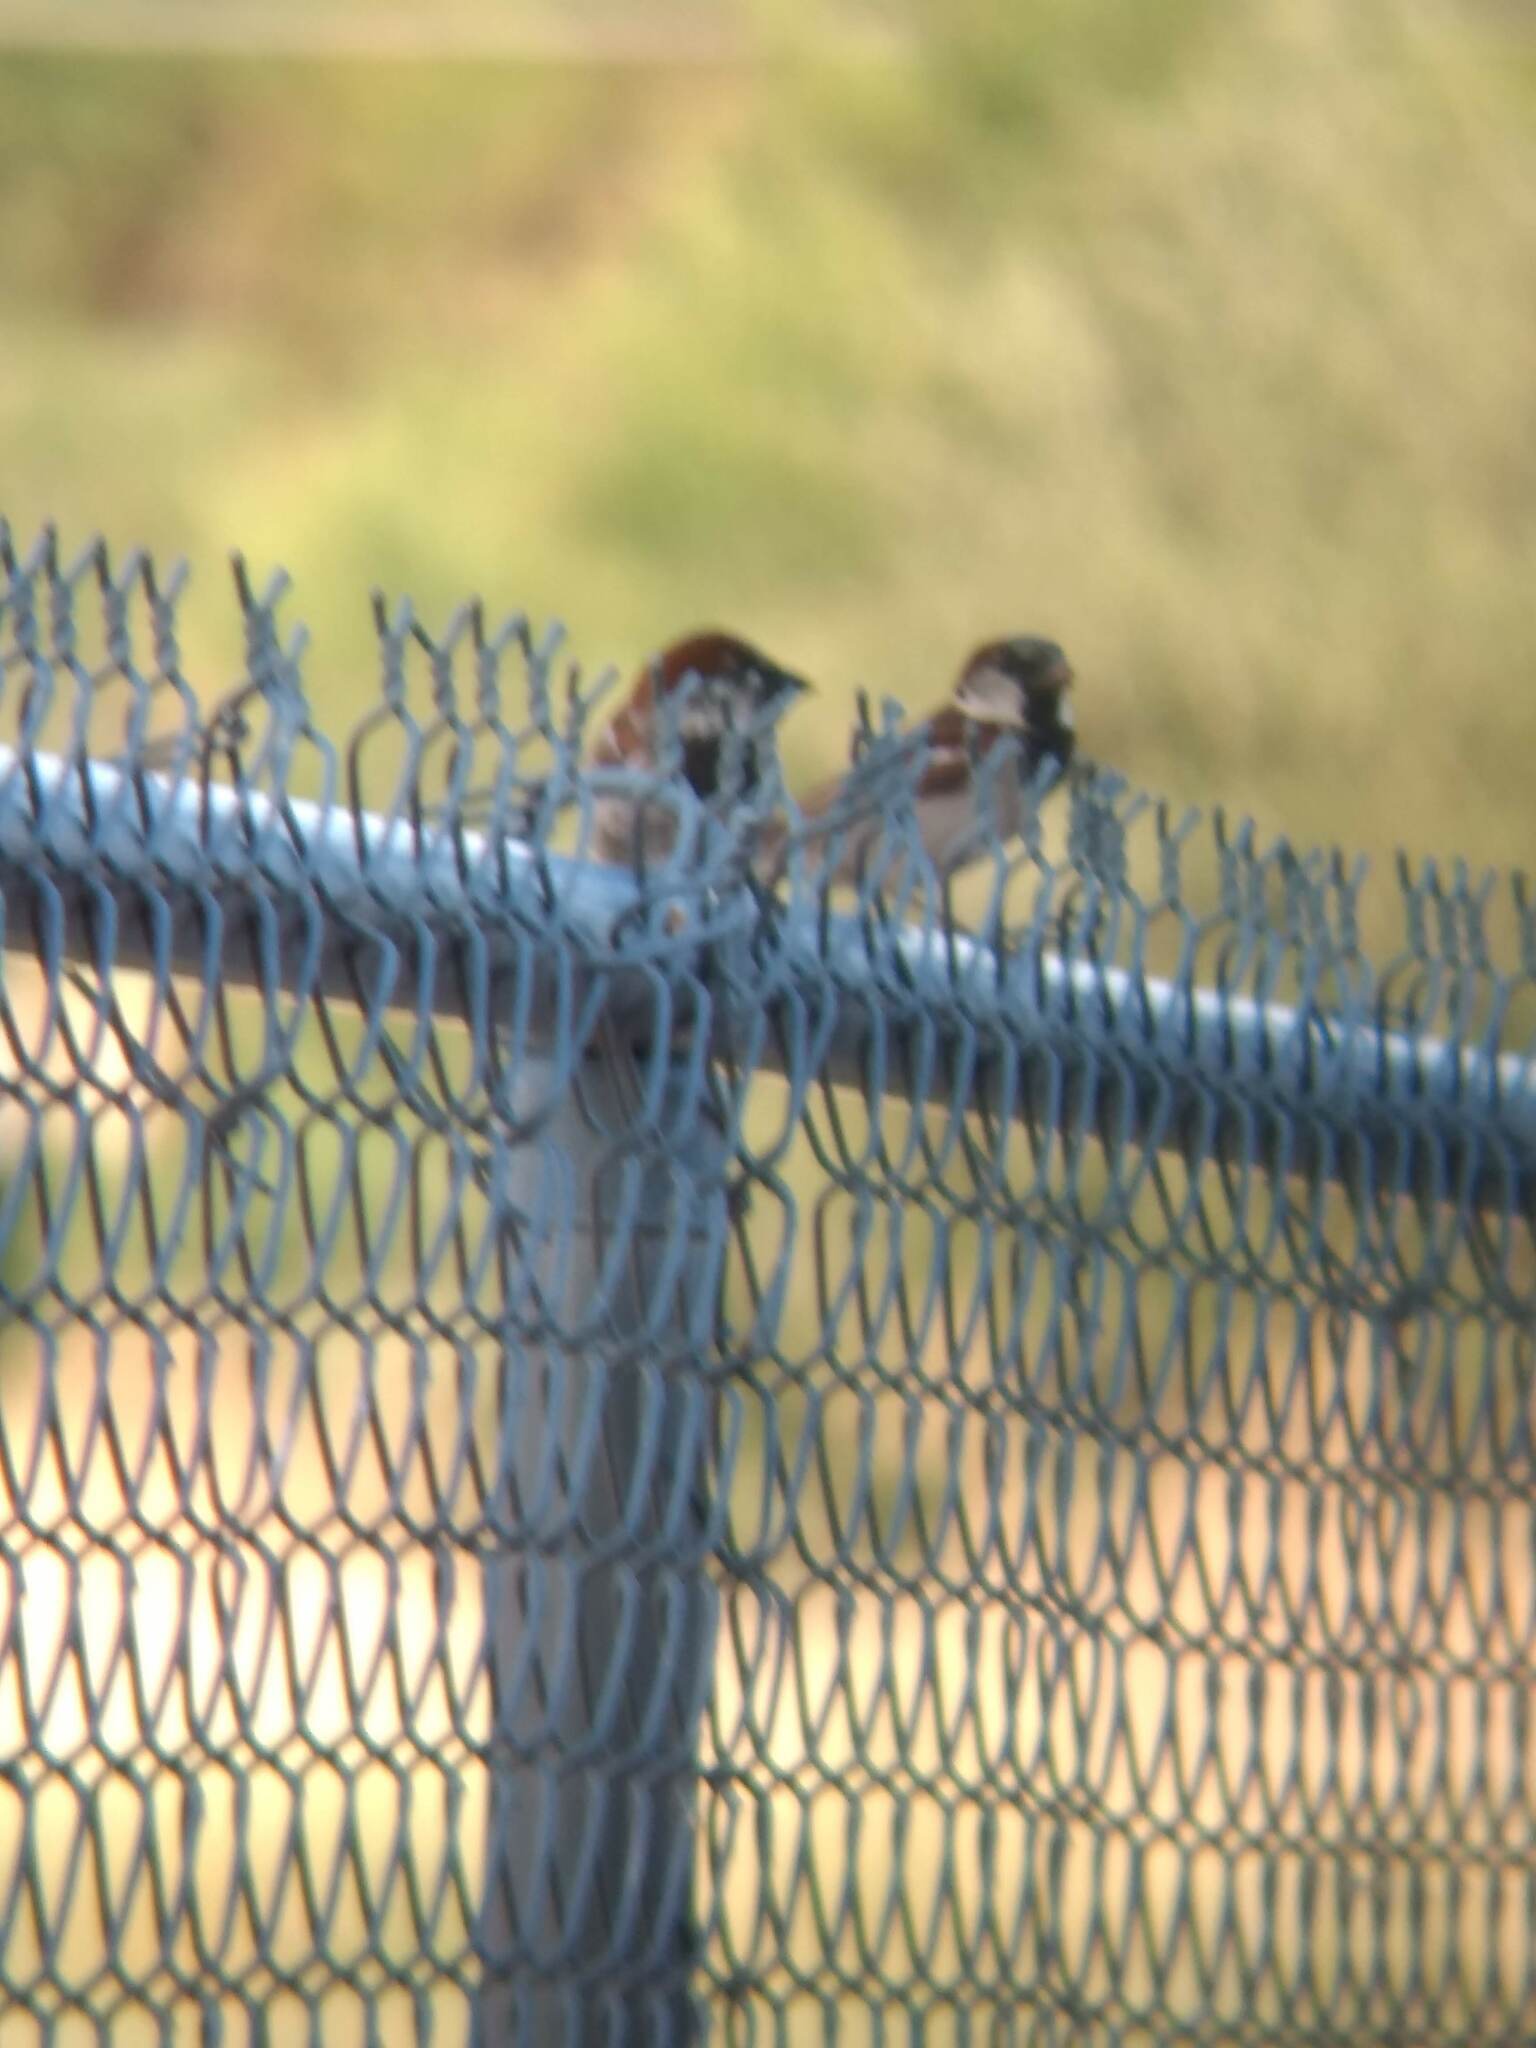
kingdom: Animalia
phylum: Chordata
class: Aves
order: Passeriformes
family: Passeridae
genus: Passer
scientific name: Passer domesticus
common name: House sparrow
